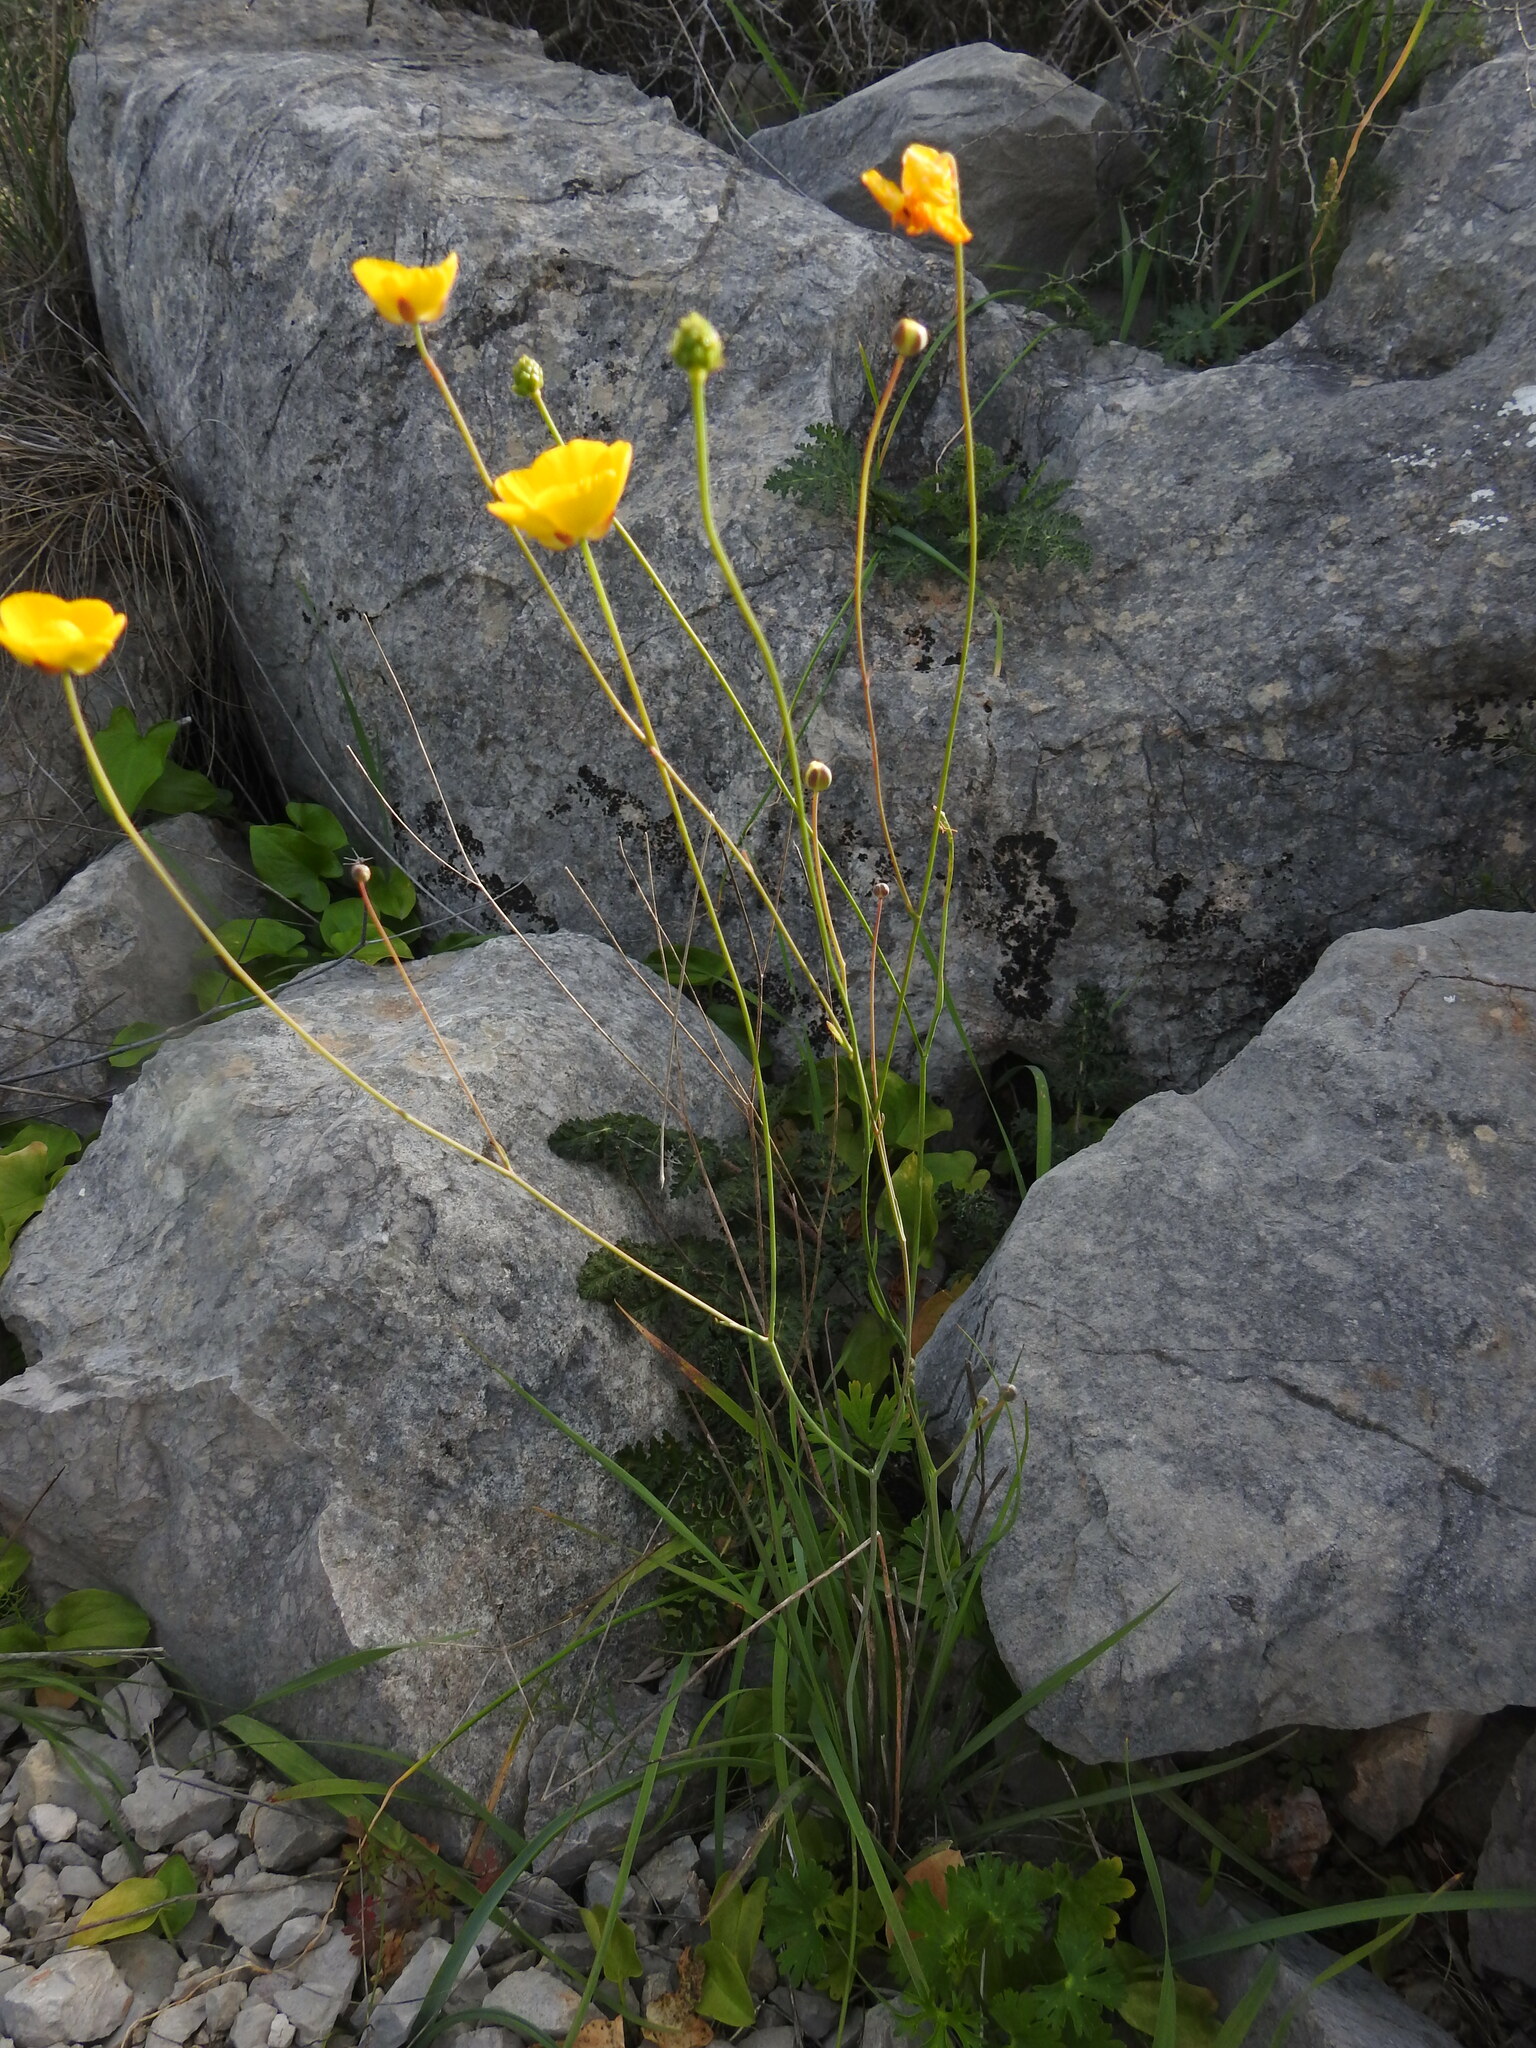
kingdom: Plantae
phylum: Tracheophyta
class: Magnoliopsida
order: Ranunculales
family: Ranunculaceae
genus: Ranunculus
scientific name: Ranunculus gramineus
